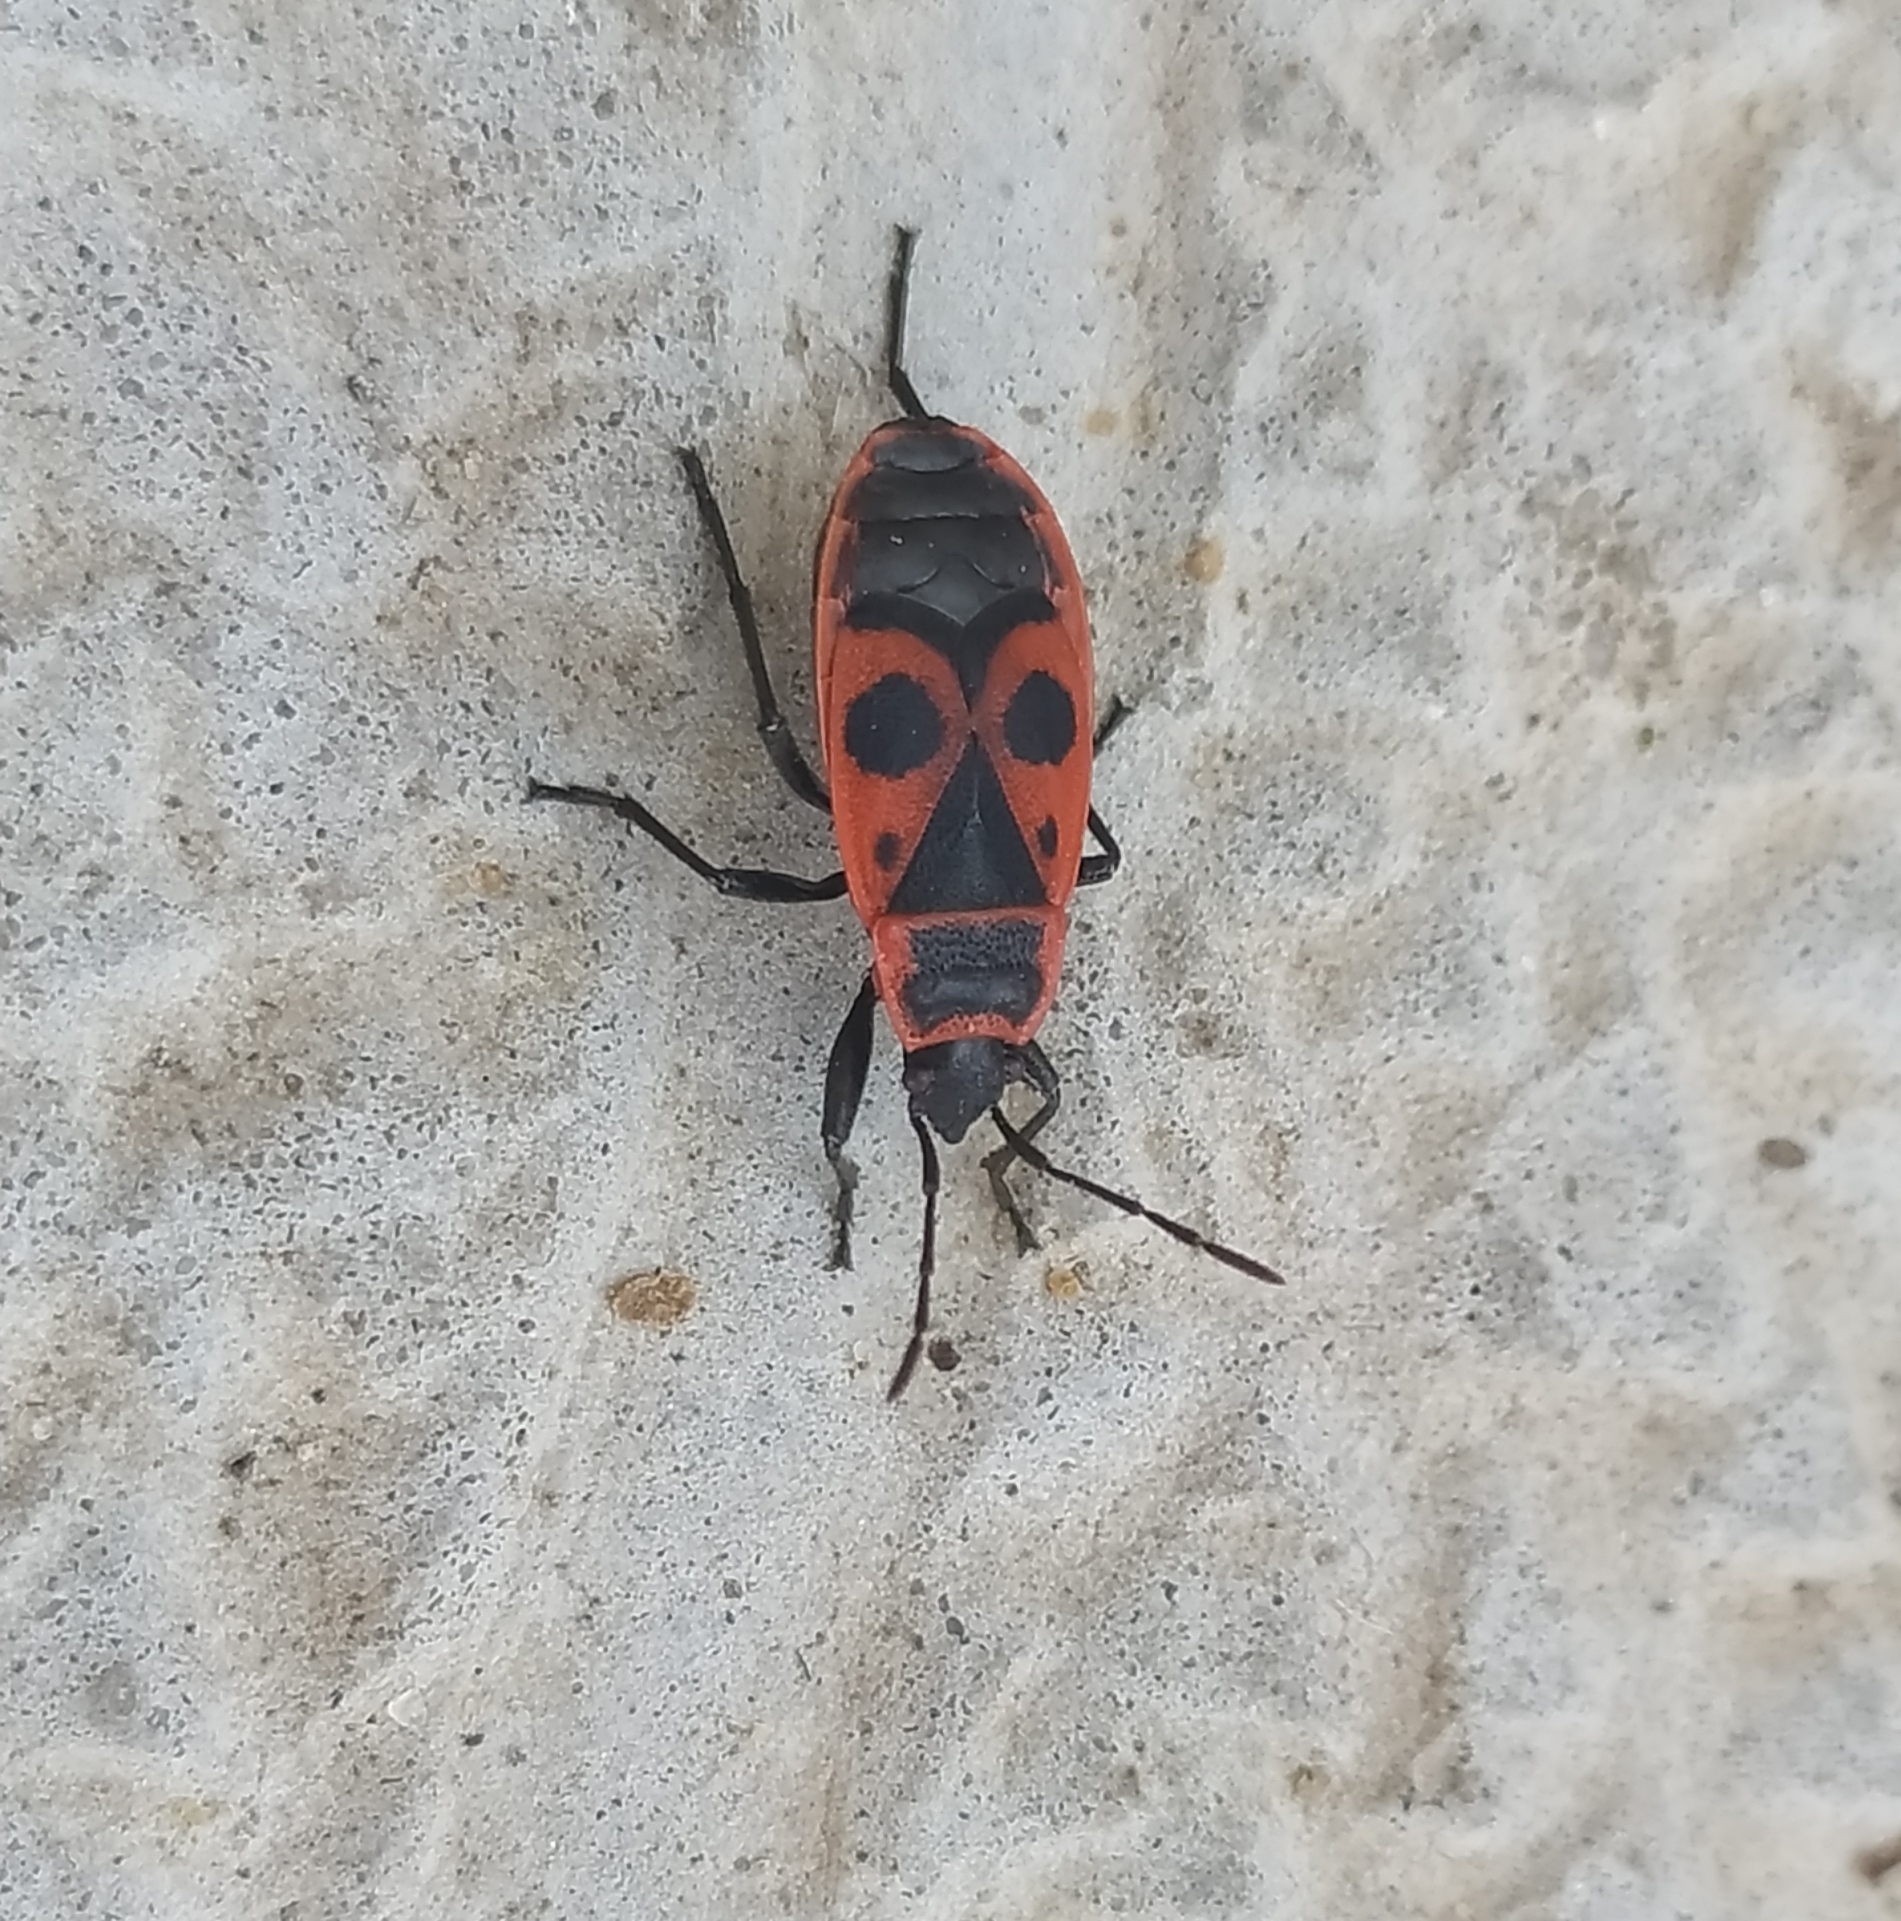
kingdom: Animalia
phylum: Arthropoda
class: Insecta
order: Hemiptera
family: Pyrrhocoridae
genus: Pyrrhocoris
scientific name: Pyrrhocoris apterus
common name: Firebug
